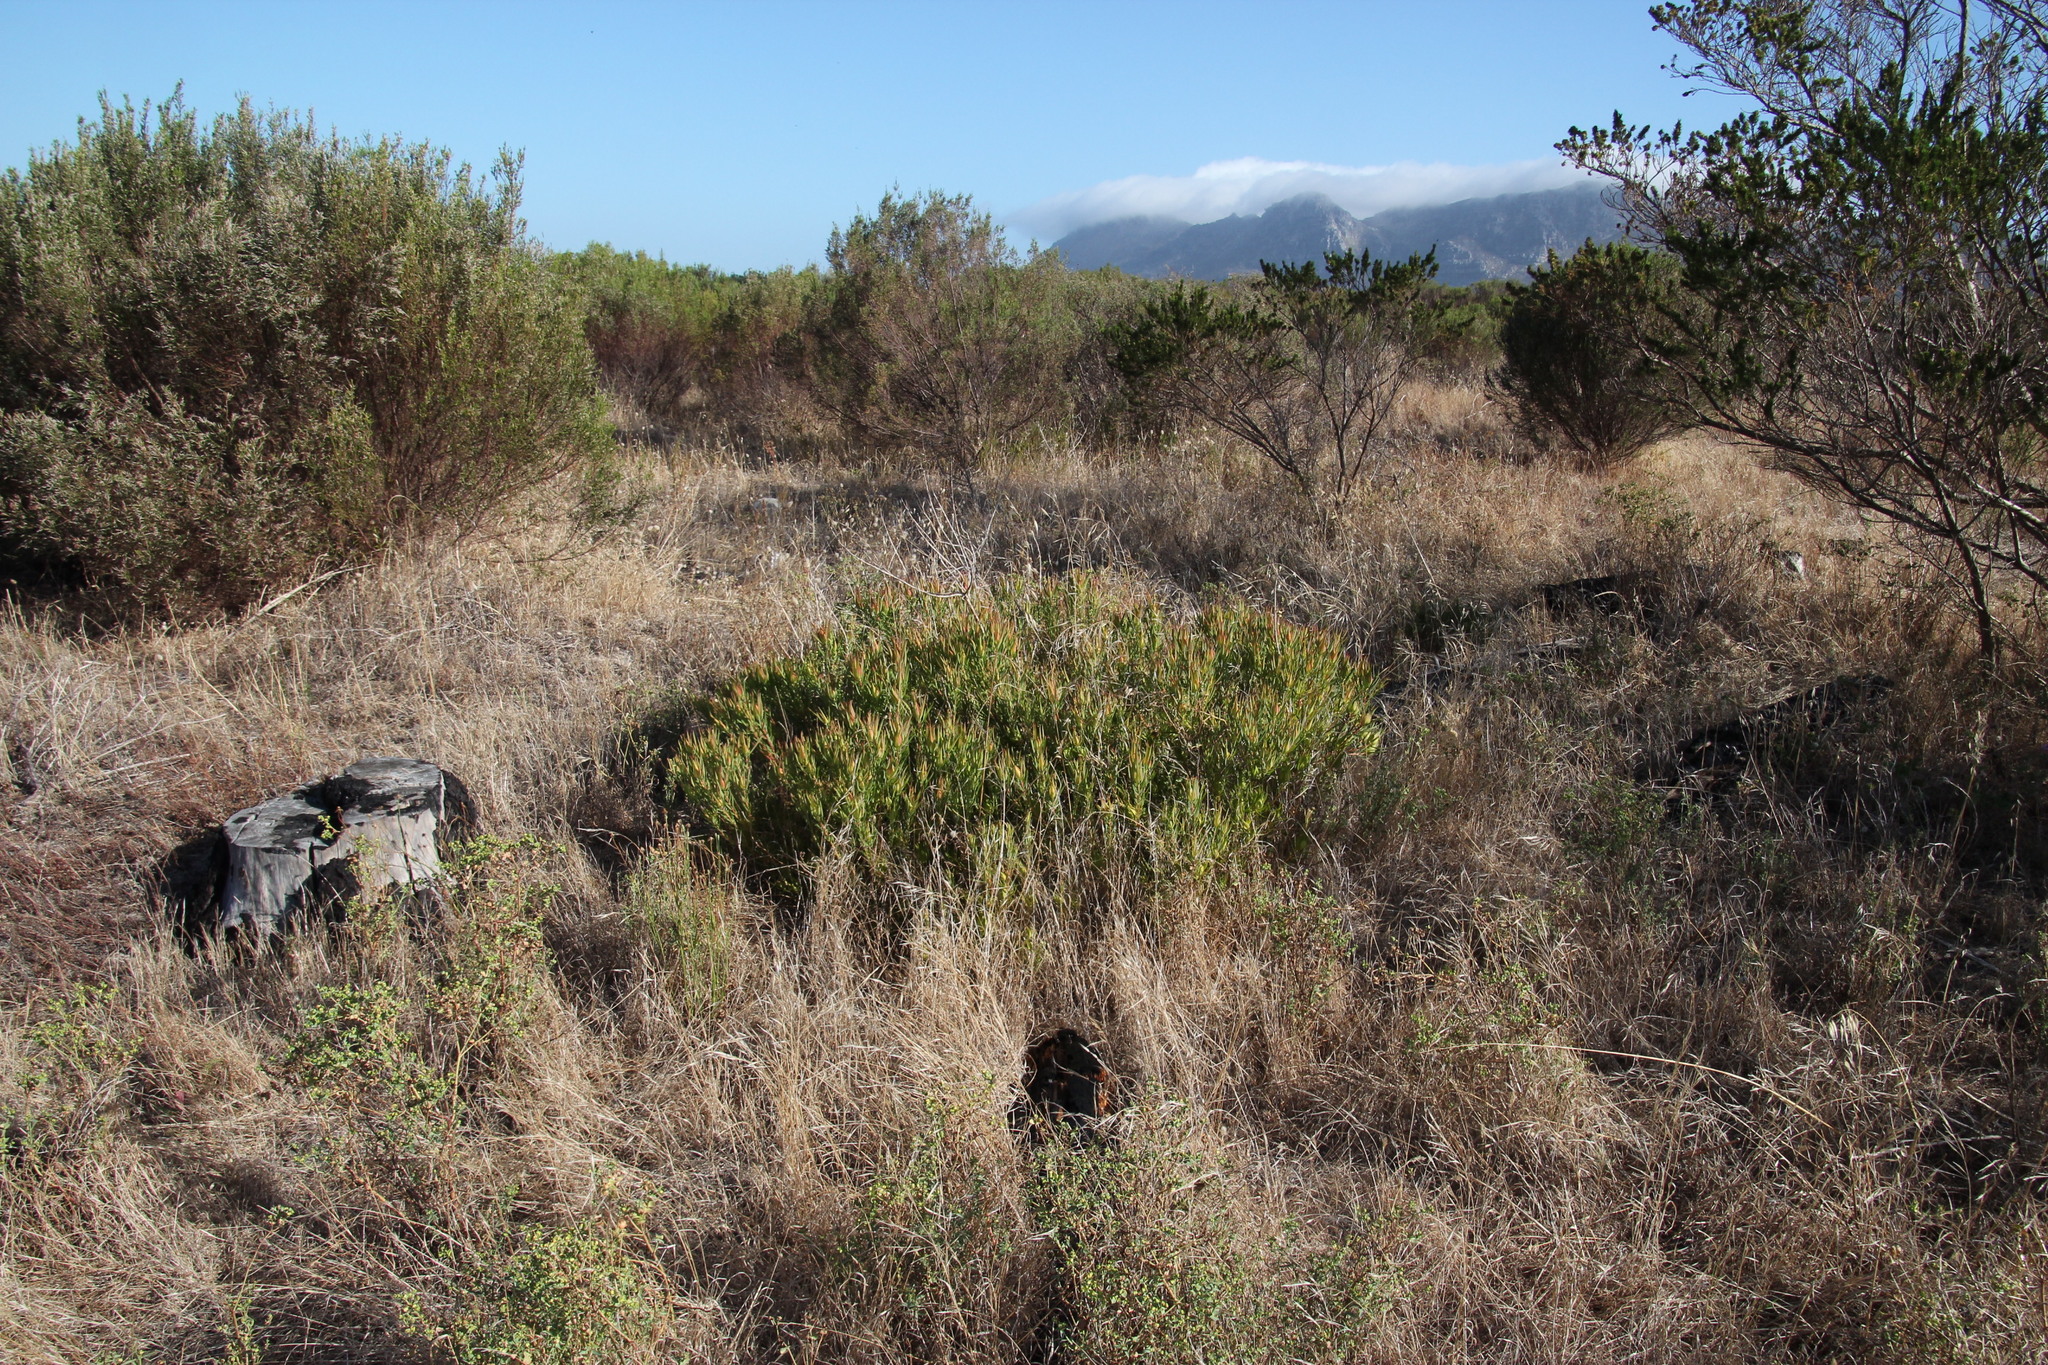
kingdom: Plantae
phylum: Tracheophyta
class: Magnoliopsida
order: Proteales
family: Proteaceae
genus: Leucadendron
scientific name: Leucadendron salignum
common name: Common sunshine conebush
